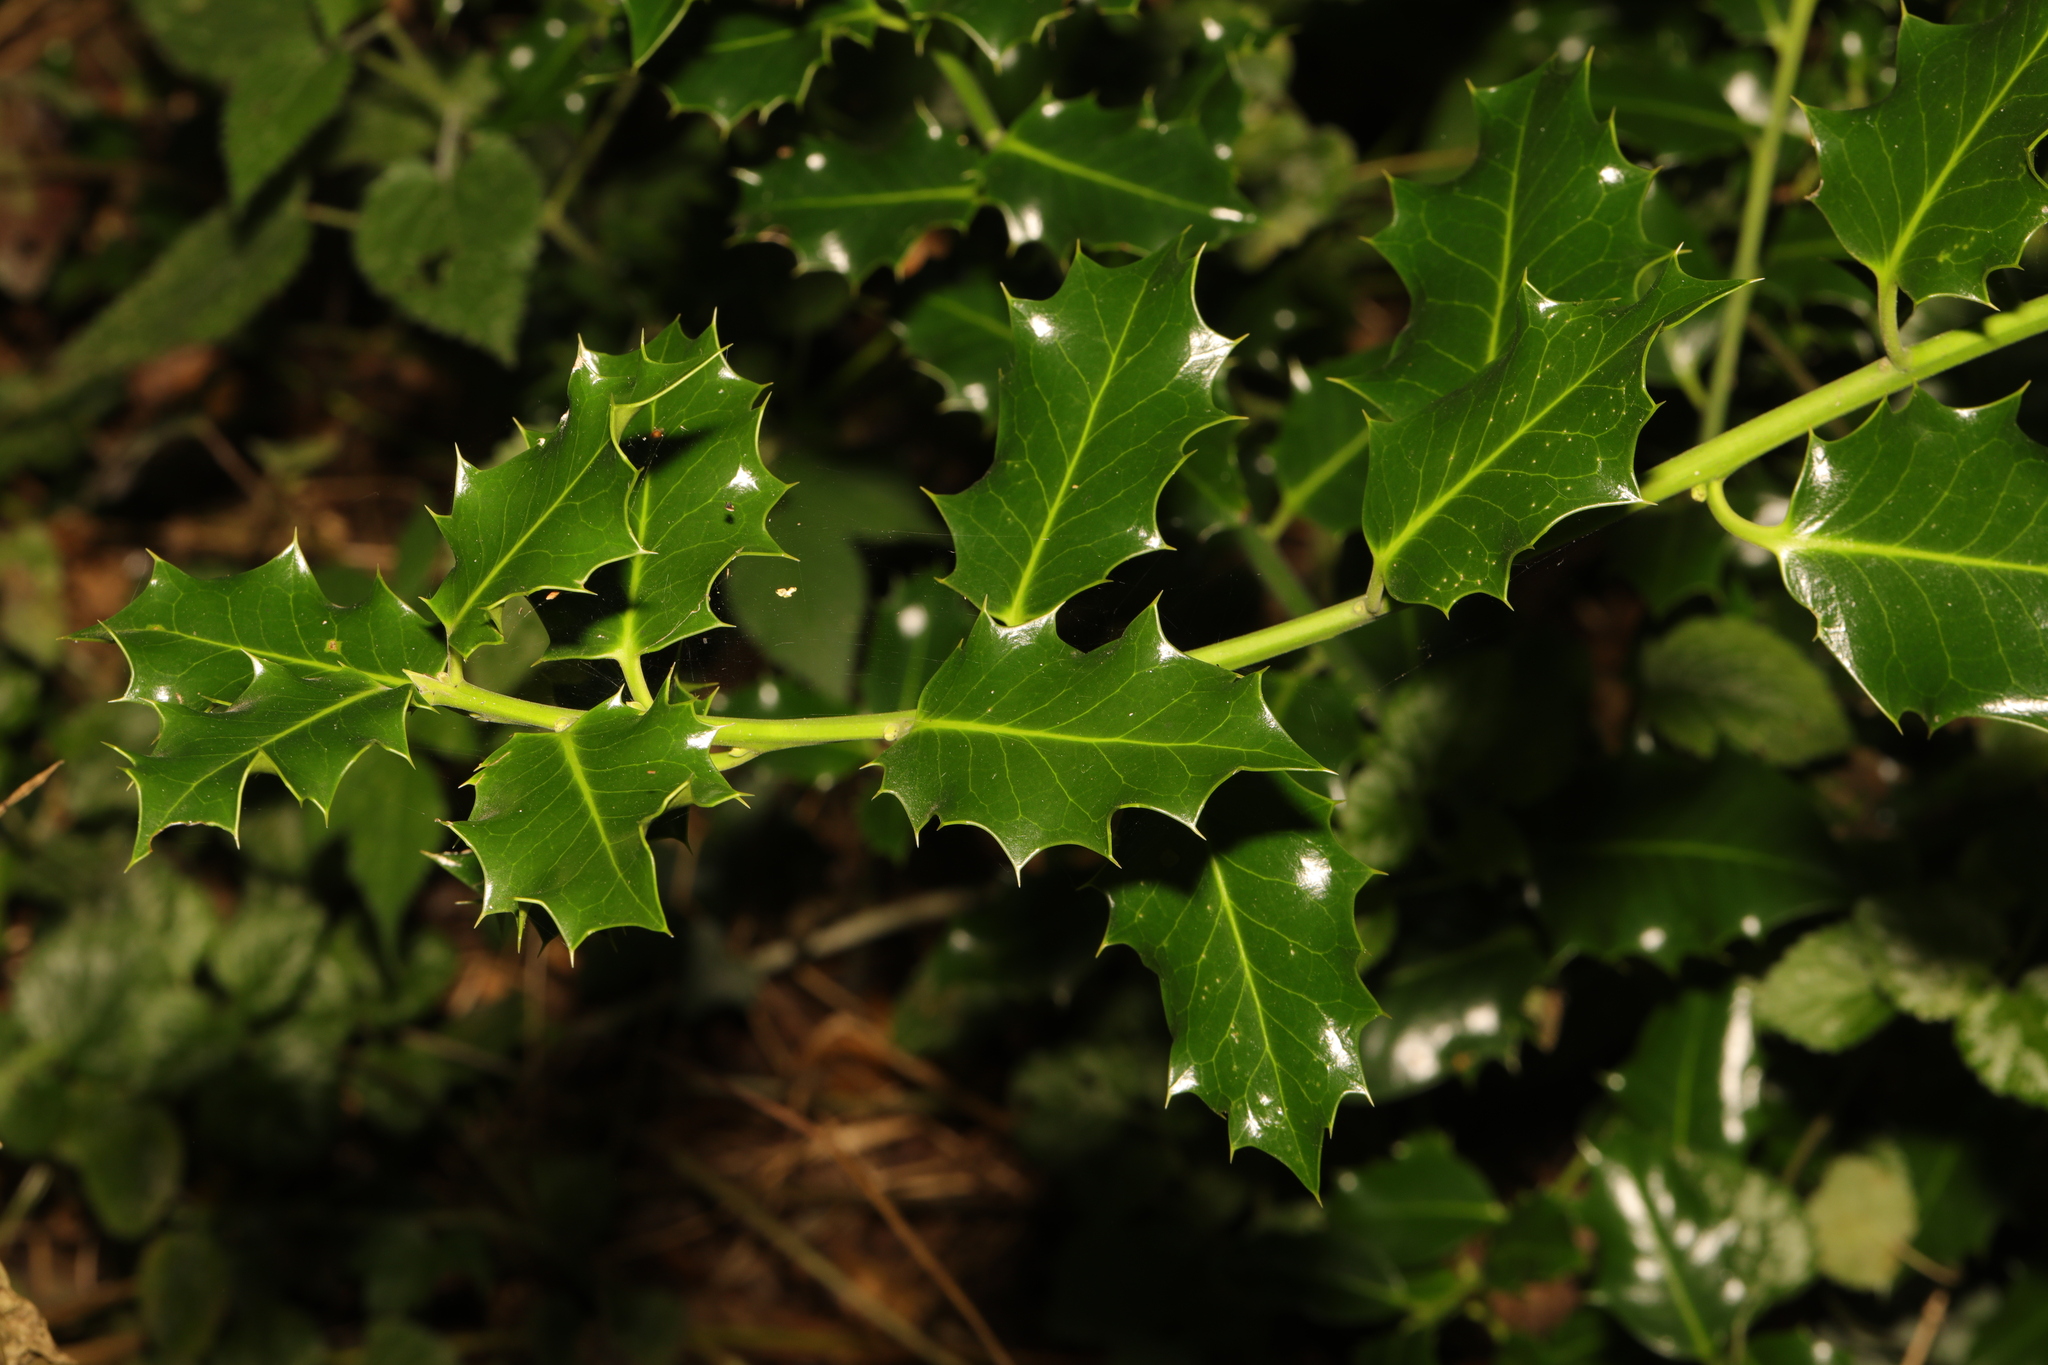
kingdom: Plantae
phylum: Tracheophyta
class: Magnoliopsida
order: Aquifoliales
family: Aquifoliaceae
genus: Ilex
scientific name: Ilex aquifolium
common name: English holly
